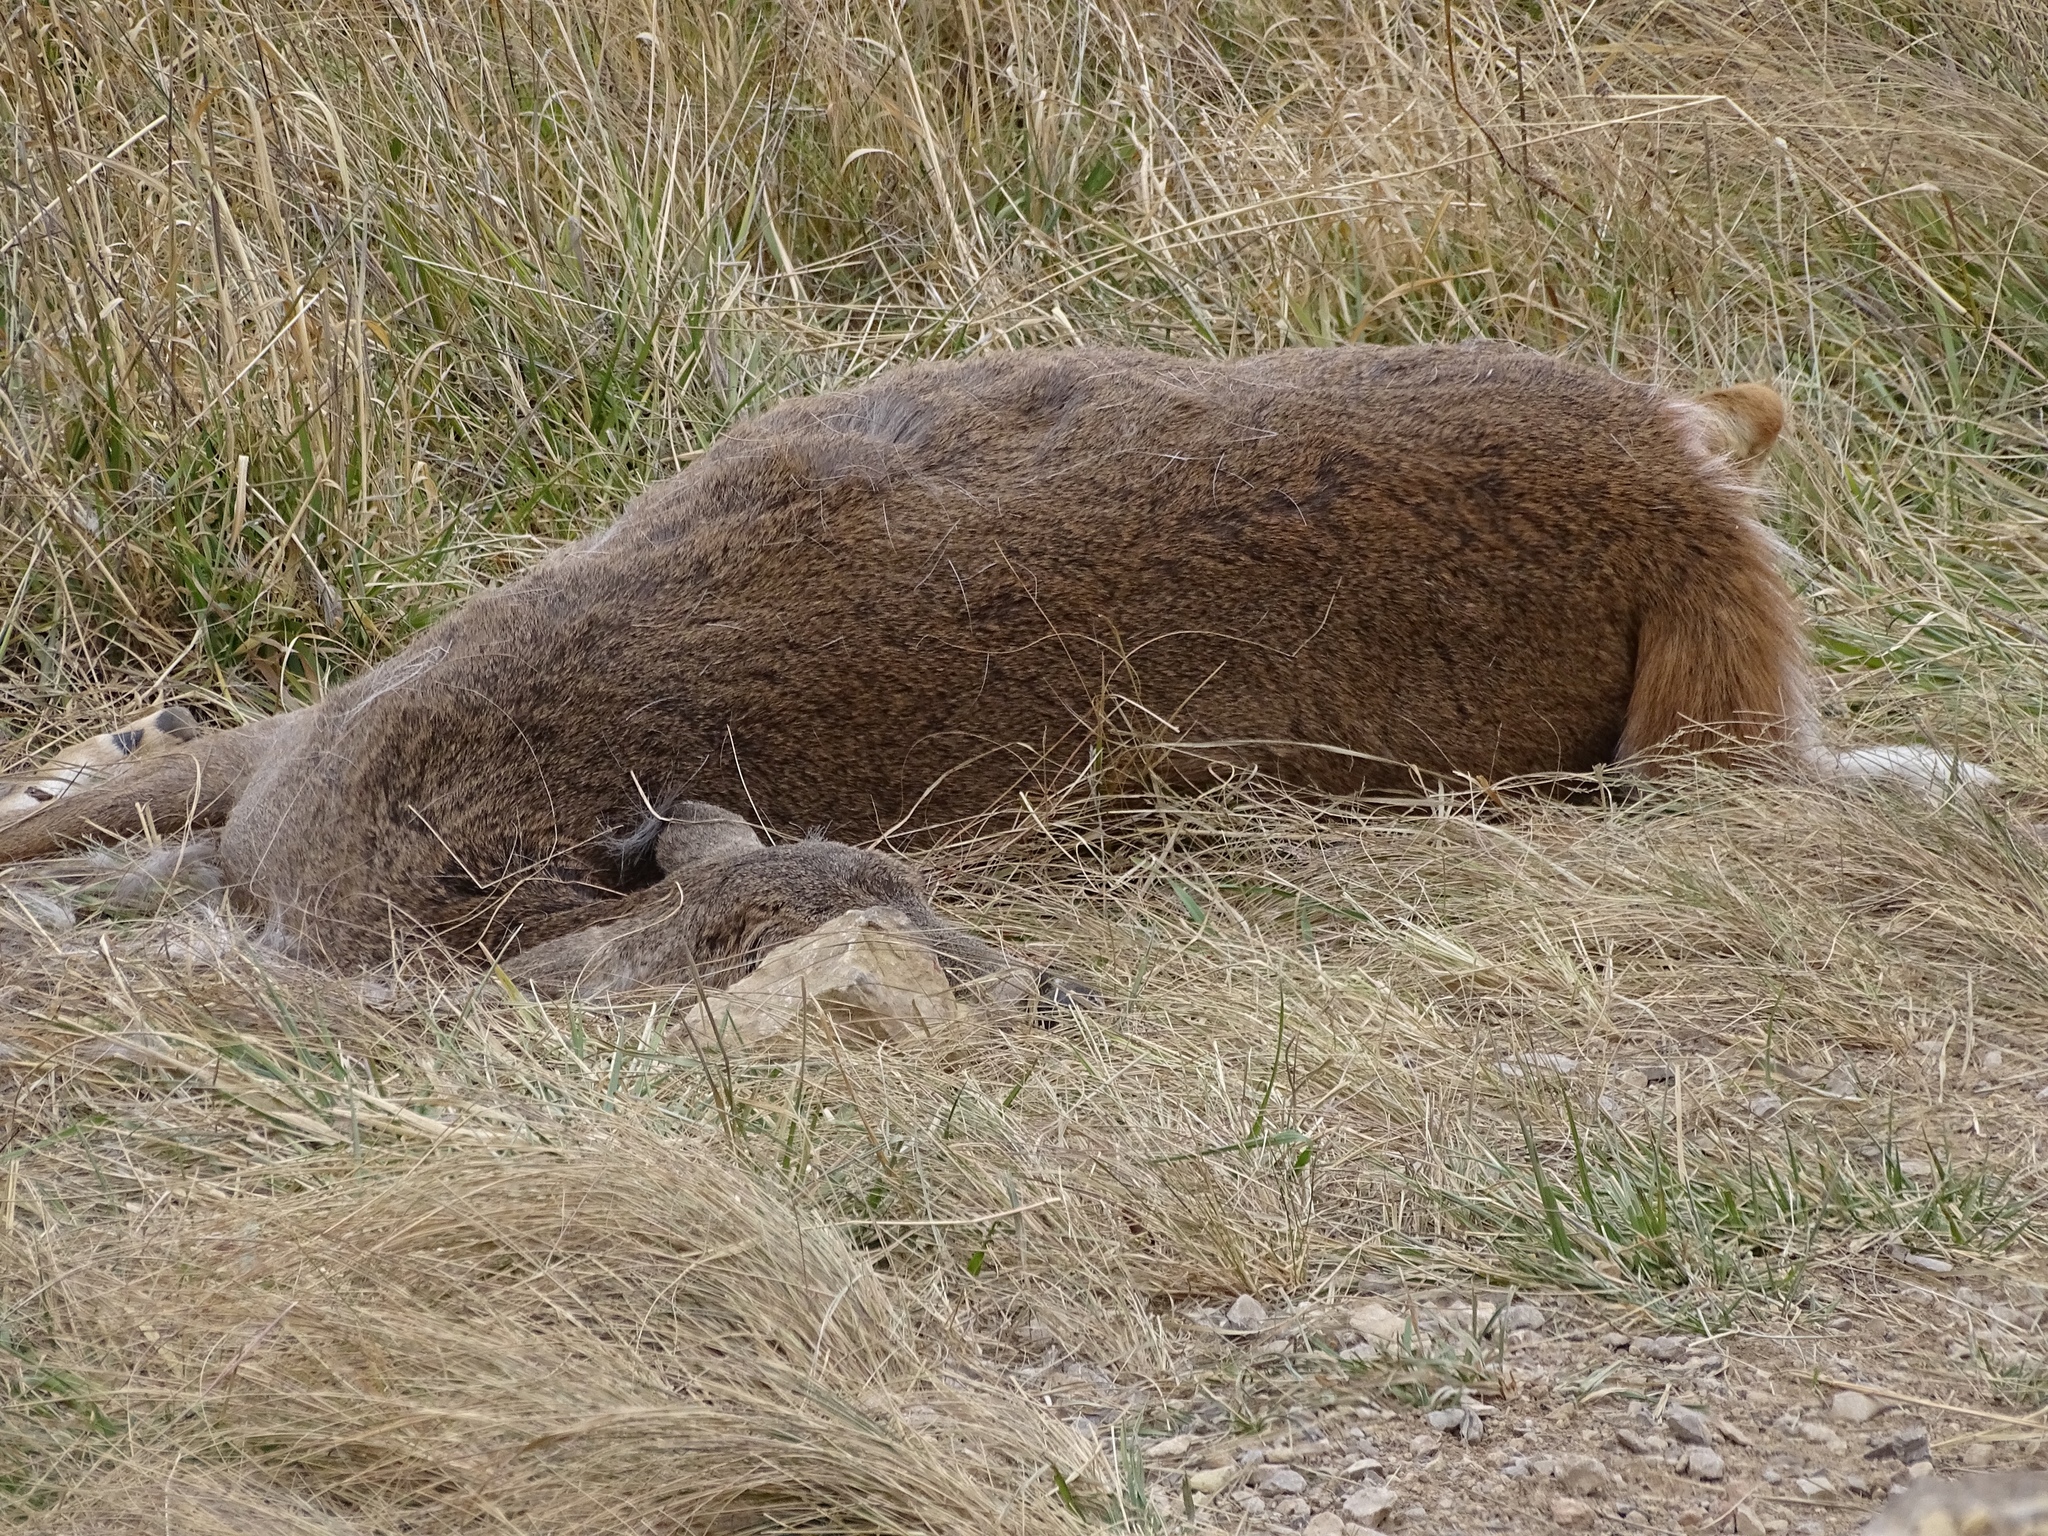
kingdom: Animalia
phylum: Chordata
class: Mammalia
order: Artiodactyla
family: Cervidae
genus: Odocoileus
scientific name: Odocoileus virginianus
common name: White-tailed deer
